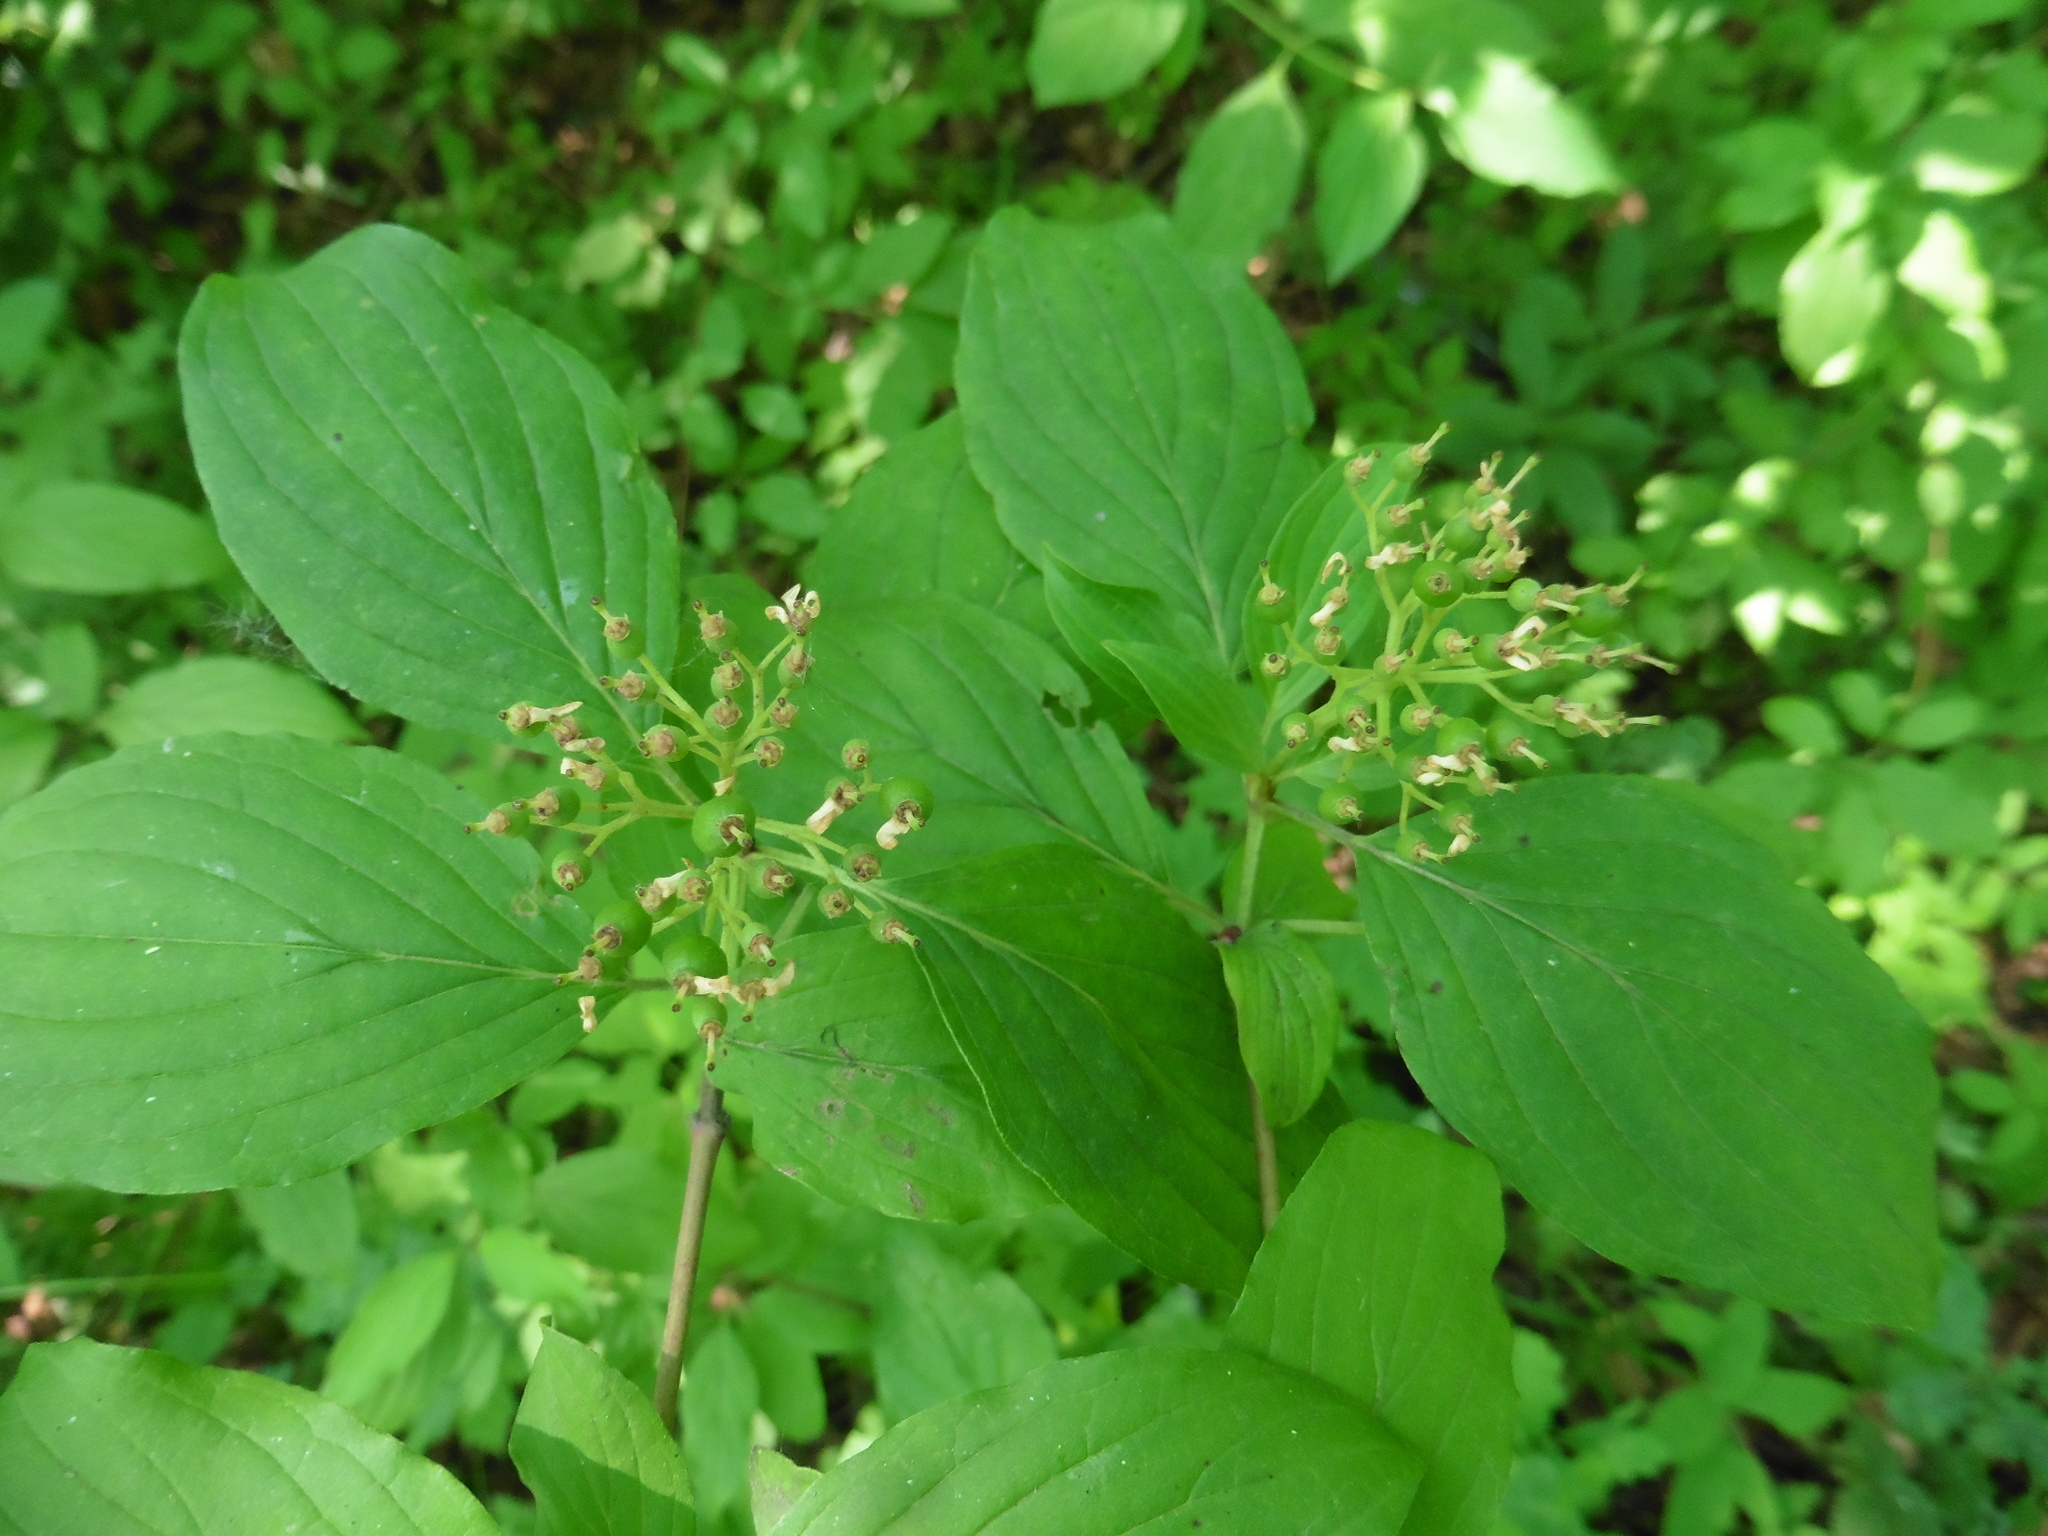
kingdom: Plantae
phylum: Tracheophyta
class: Magnoliopsida
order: Cornales
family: Cornaceae
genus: Cornus
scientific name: Cornus sanguinea
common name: Dogwood
